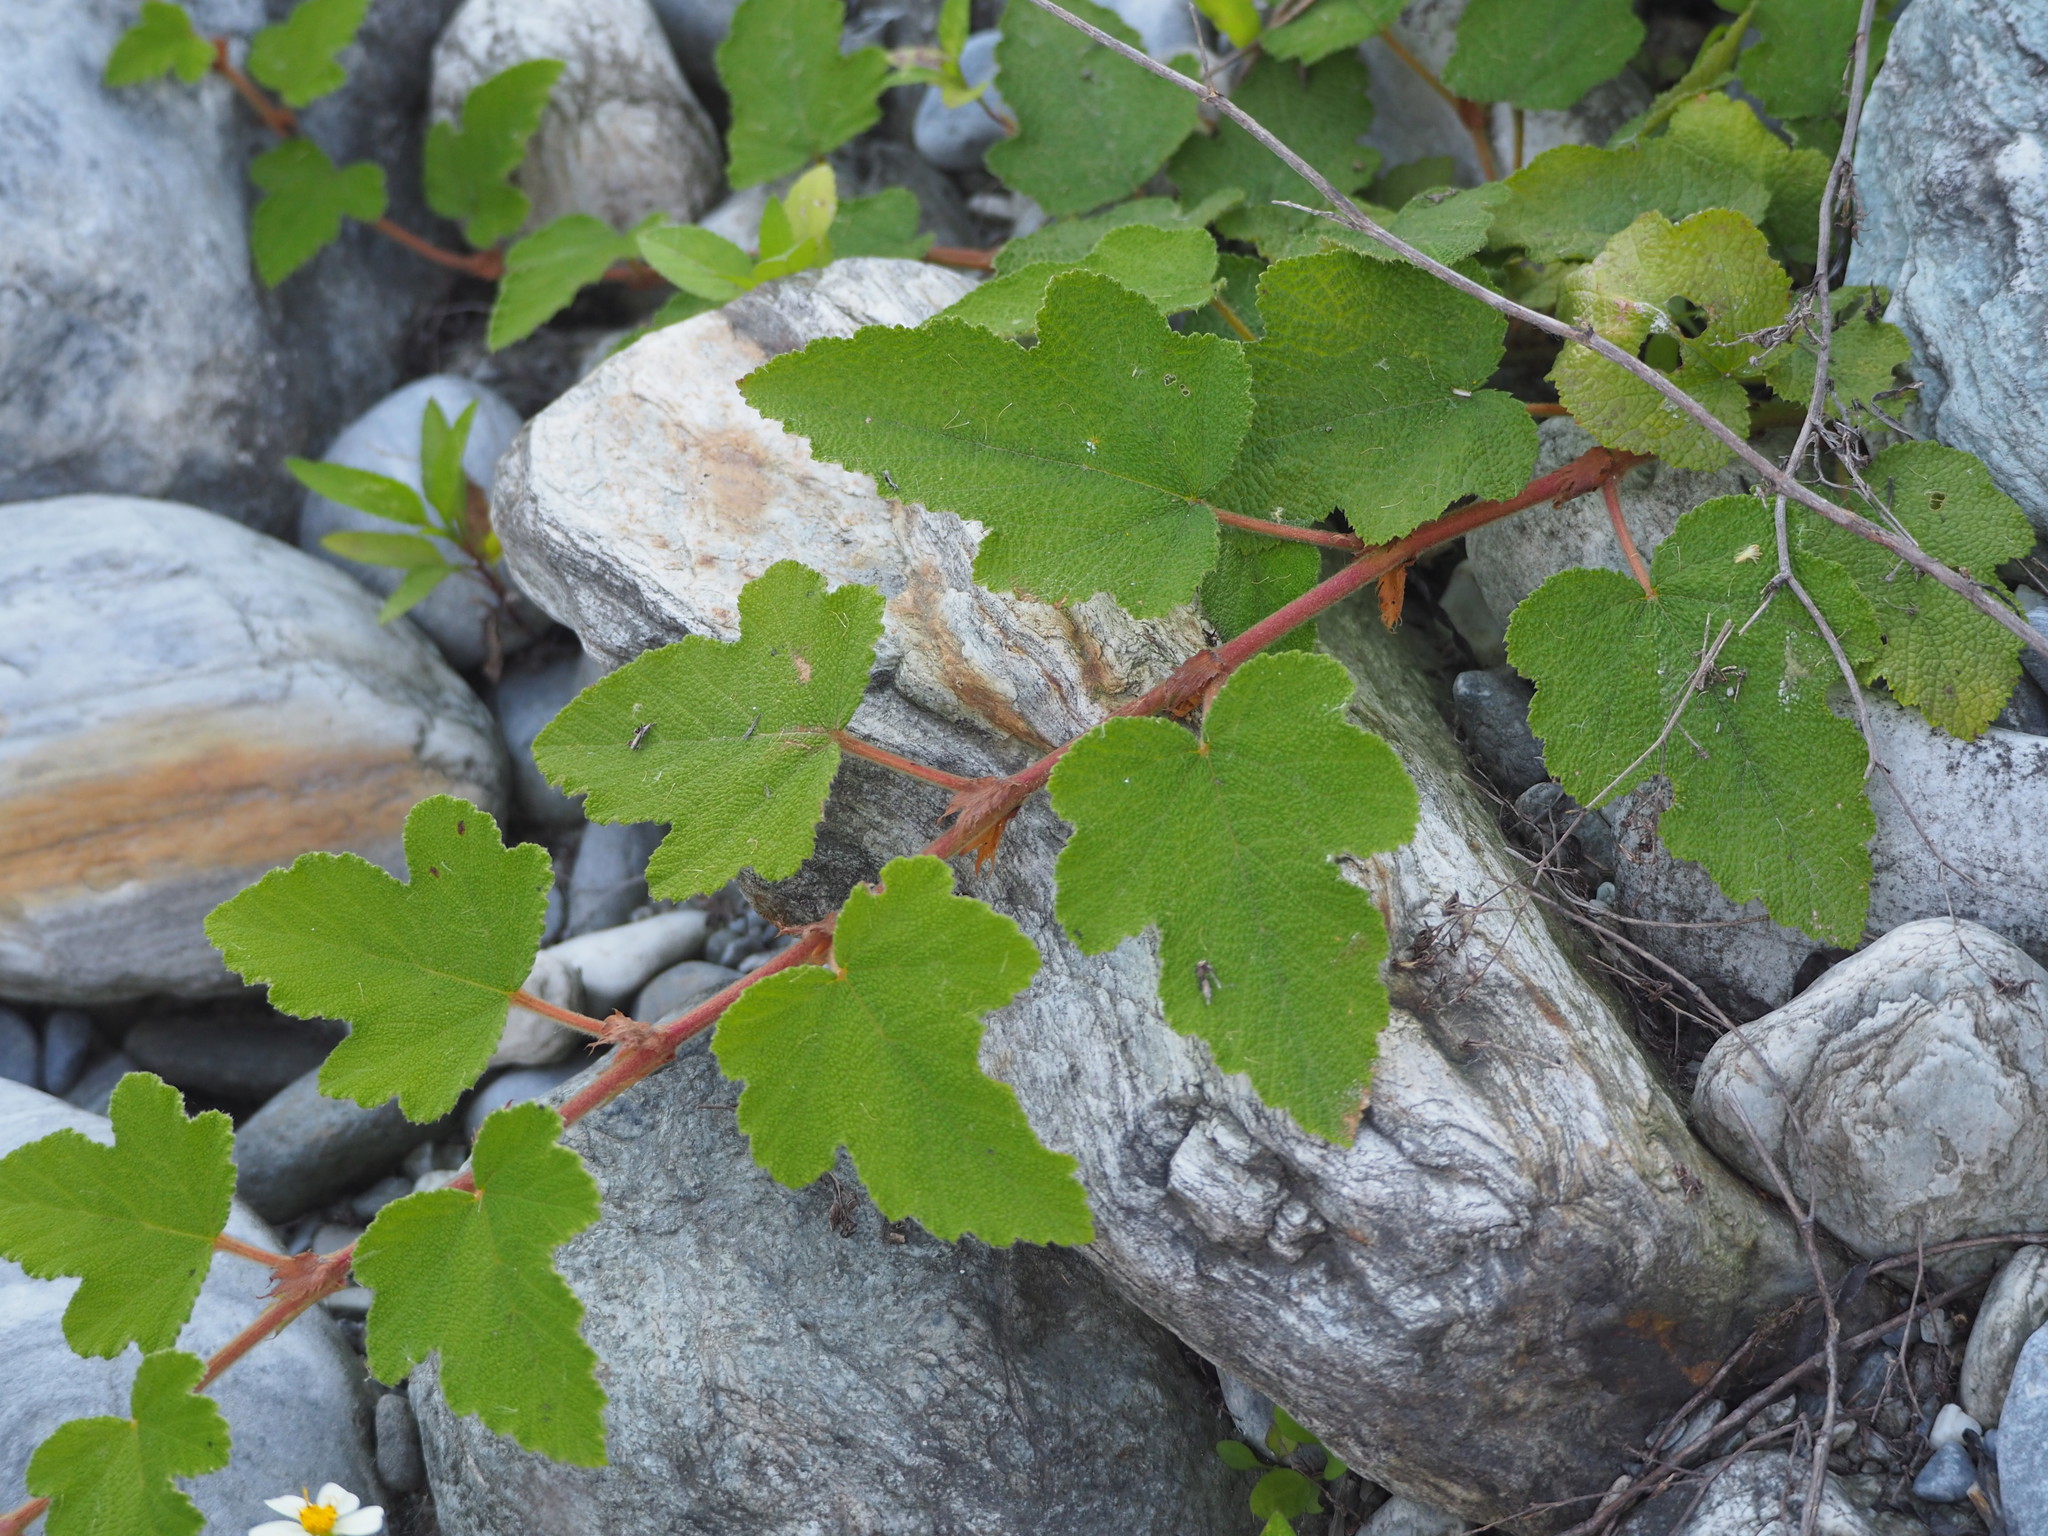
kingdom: Plantae
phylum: Tracheophyta
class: Magnoliopsida
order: Rosales
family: Rosaceae
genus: Rubus
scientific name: Rubus formosensis
